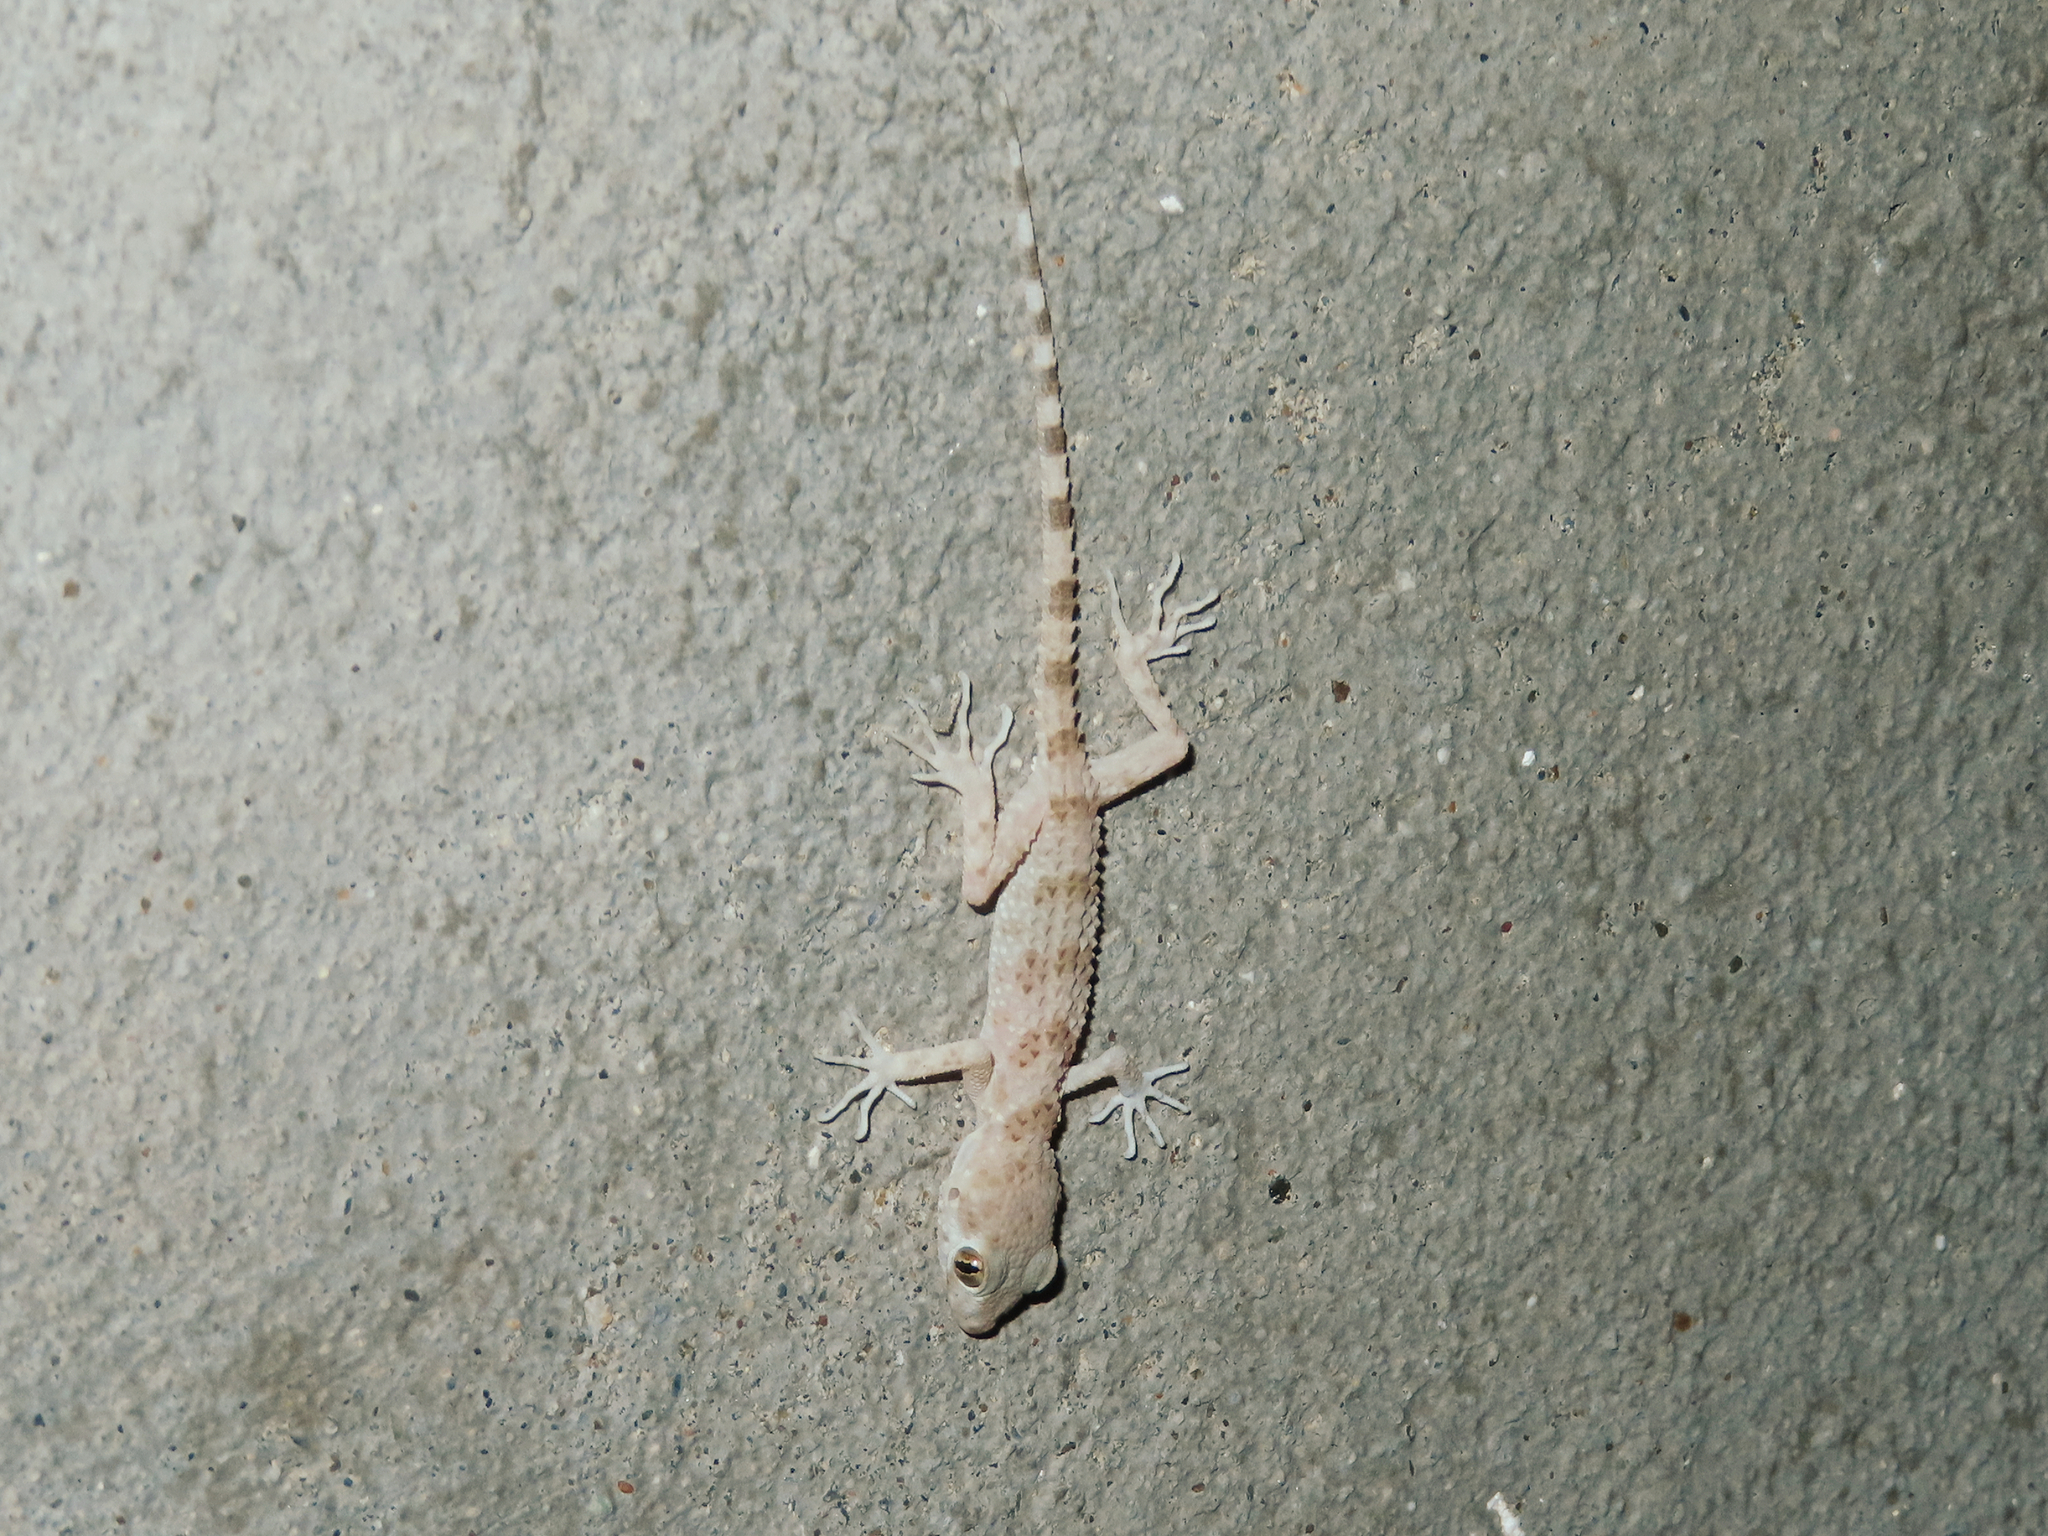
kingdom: Animalia
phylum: Chordata
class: Squamata
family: Gekkonidae
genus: Tenuidactylus
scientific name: Tenuidactylus caspius
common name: Caspian bent-toed gecko
